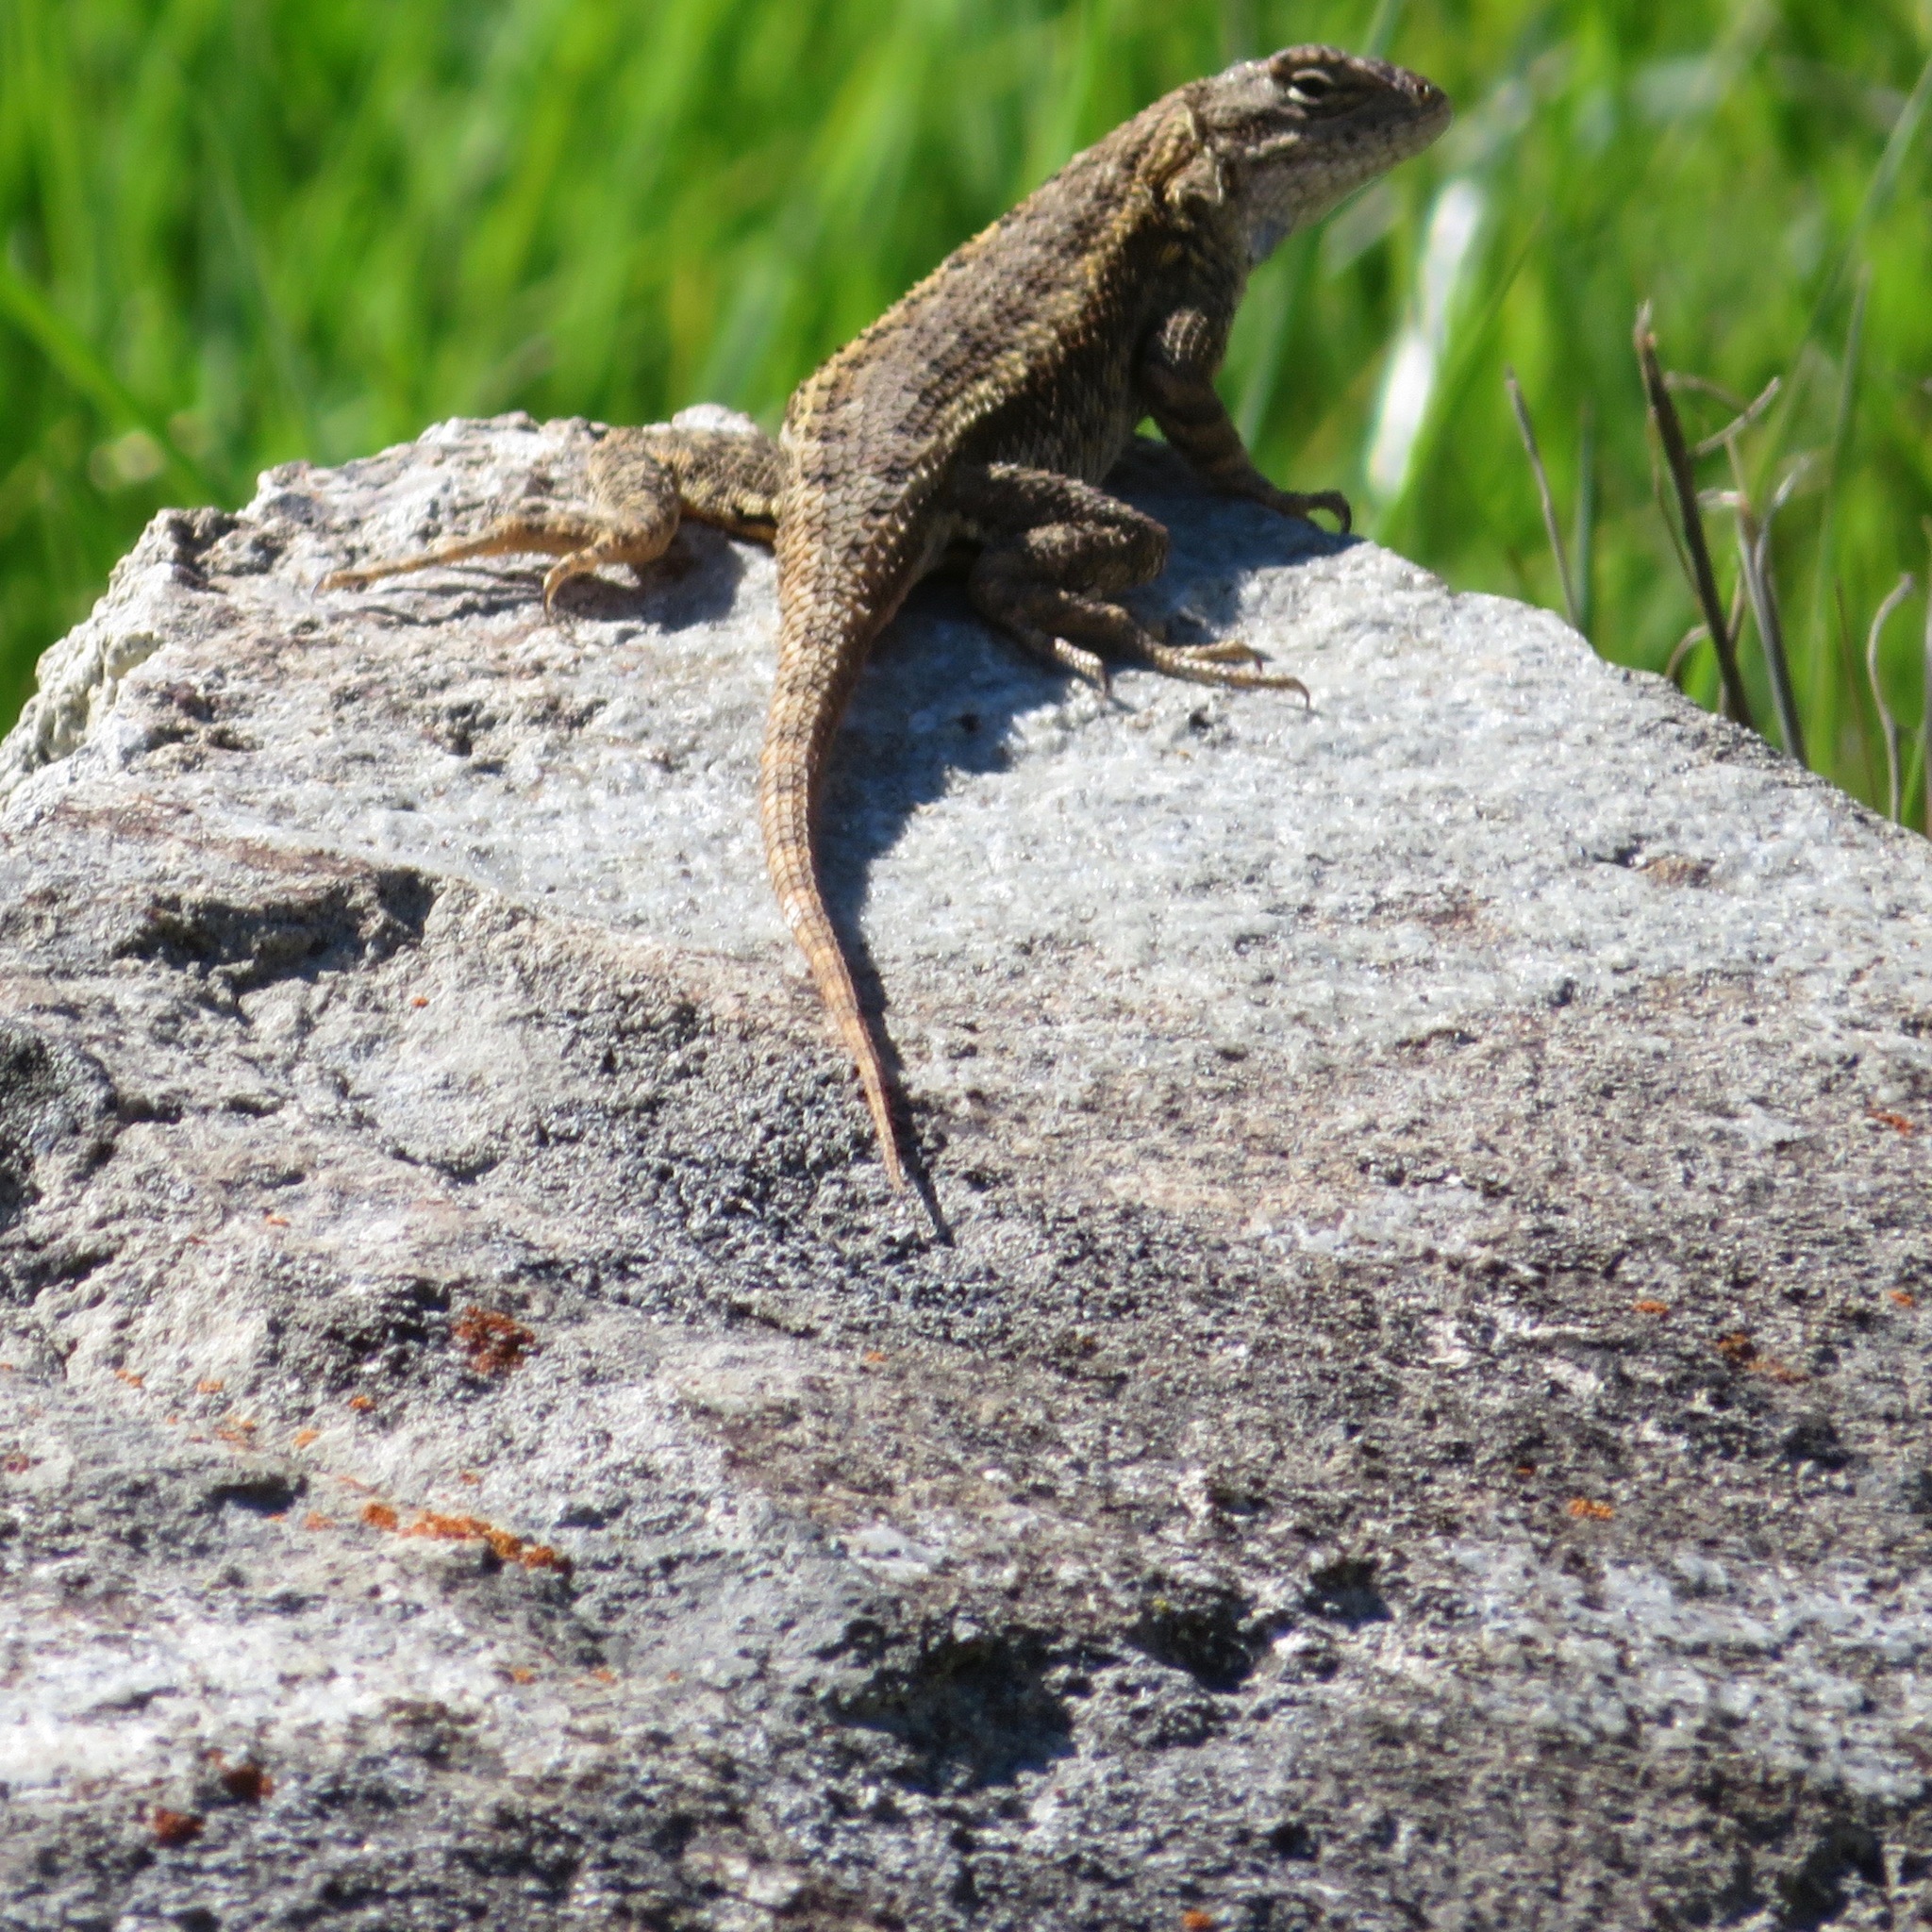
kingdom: Animalia
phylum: Chordata
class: Squamata
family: Phrynosomatidae
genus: Sceloporus
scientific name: Sceloporus occidentalis
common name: Western fence lizard
